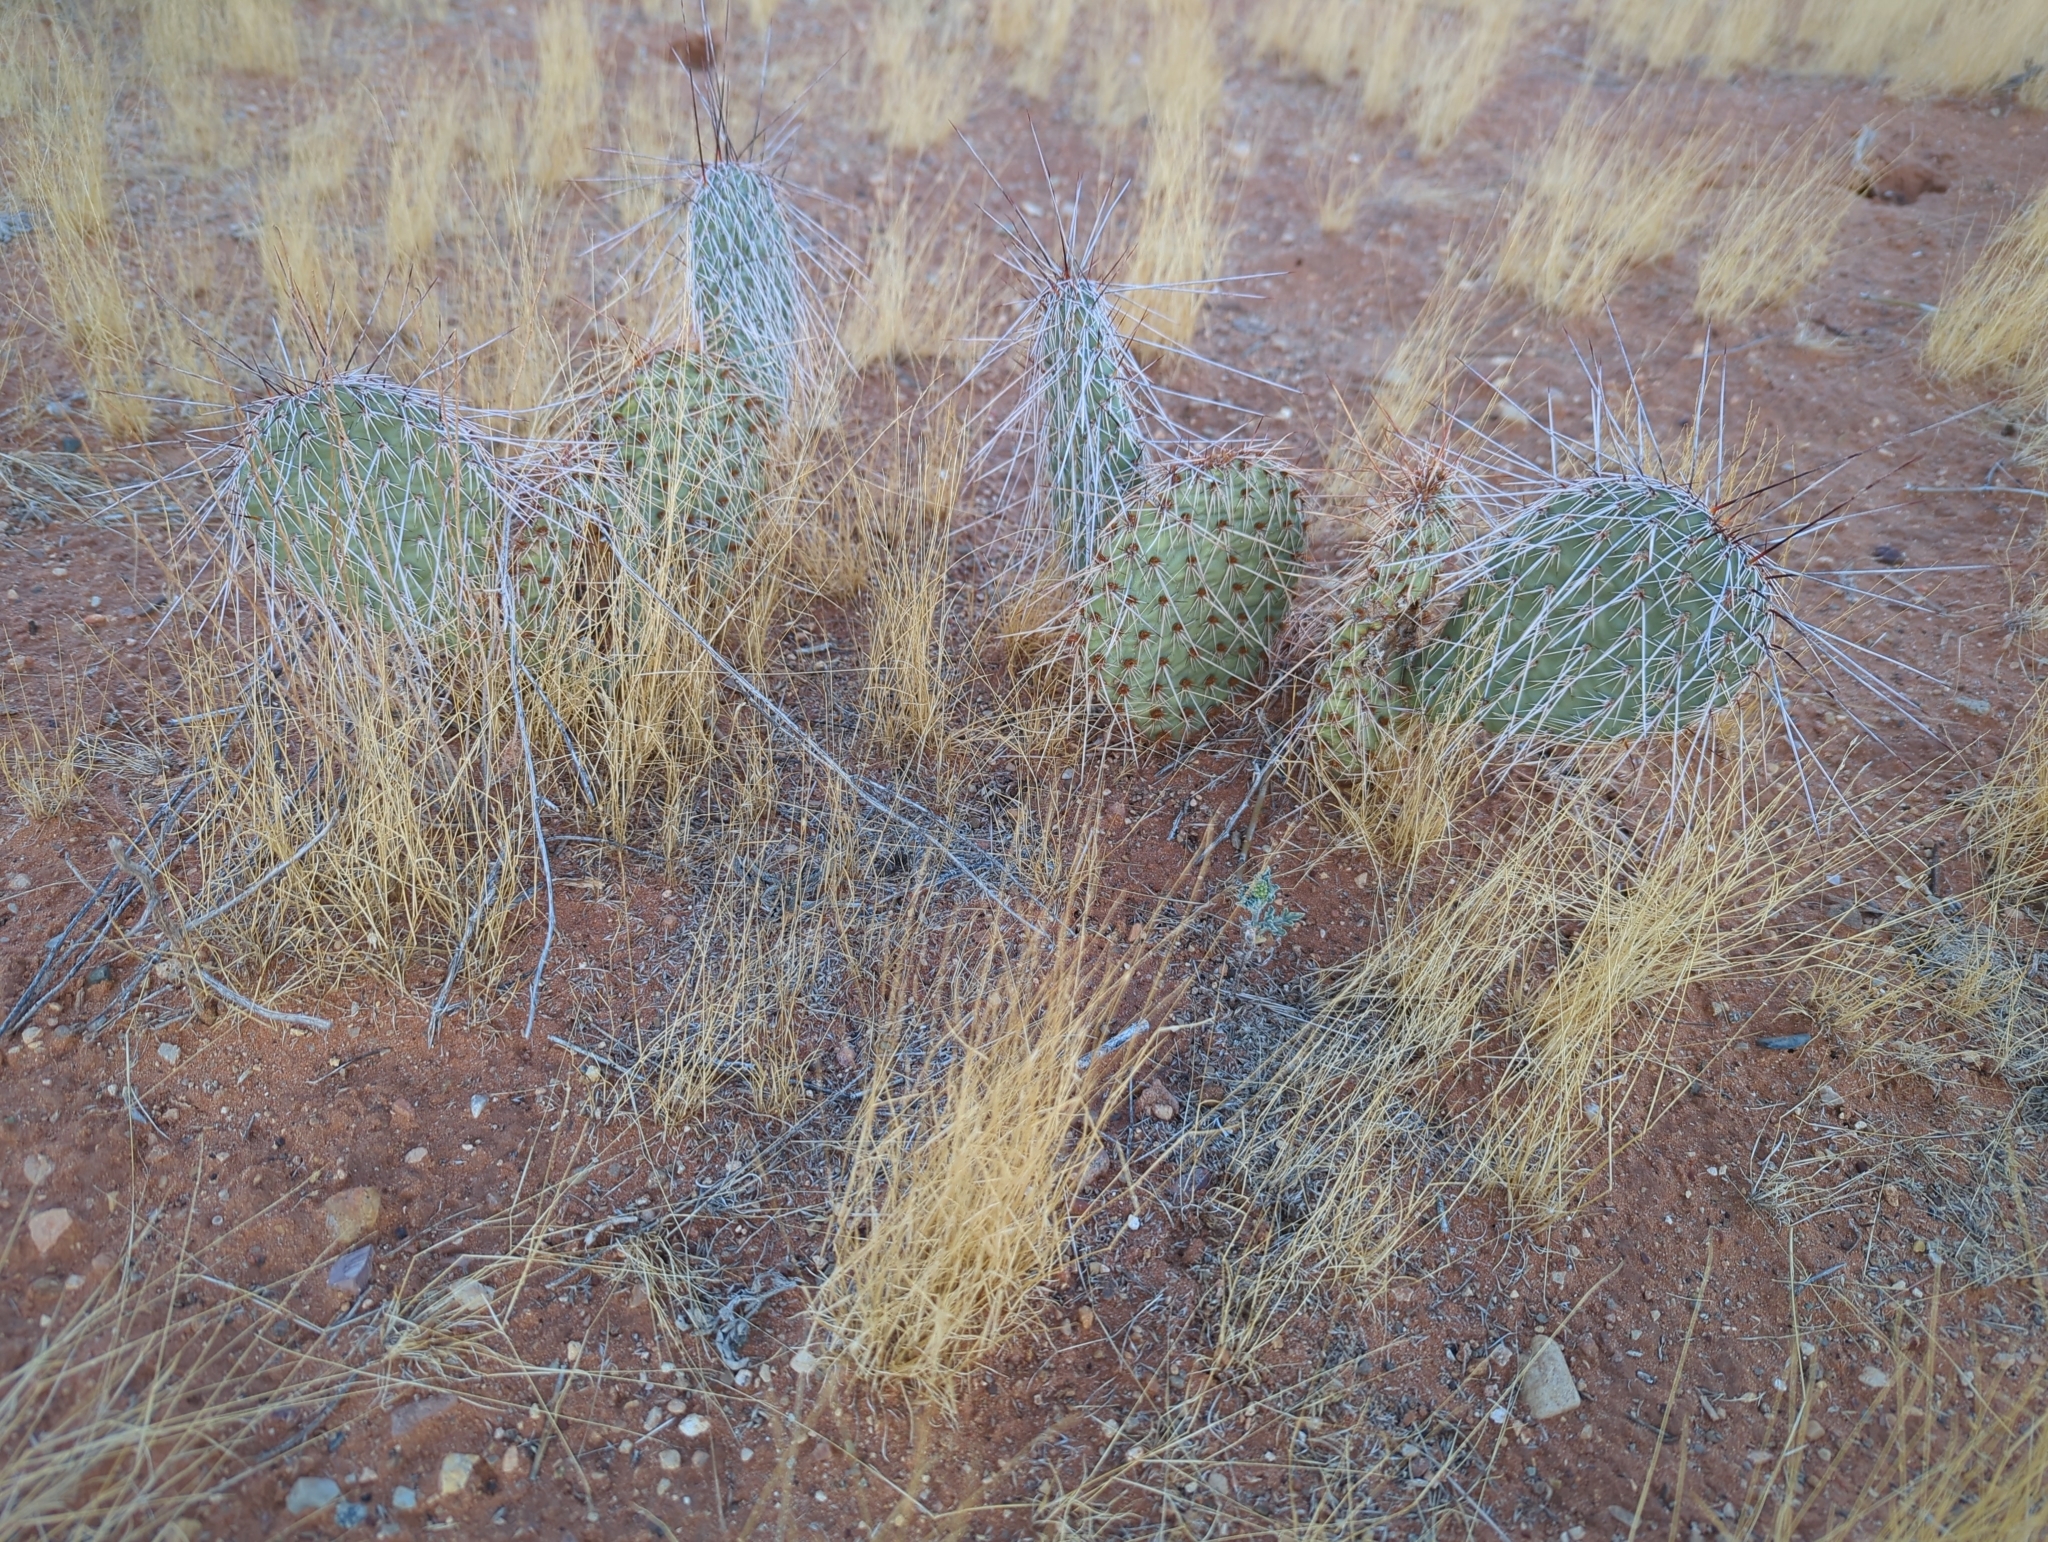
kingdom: Plantae
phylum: Tracheophyta
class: Magnoliopsida
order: Caryophyllales
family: Cactaceae
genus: Opuntia
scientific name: Opuntia polyacantha
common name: Plains prickly-pear
